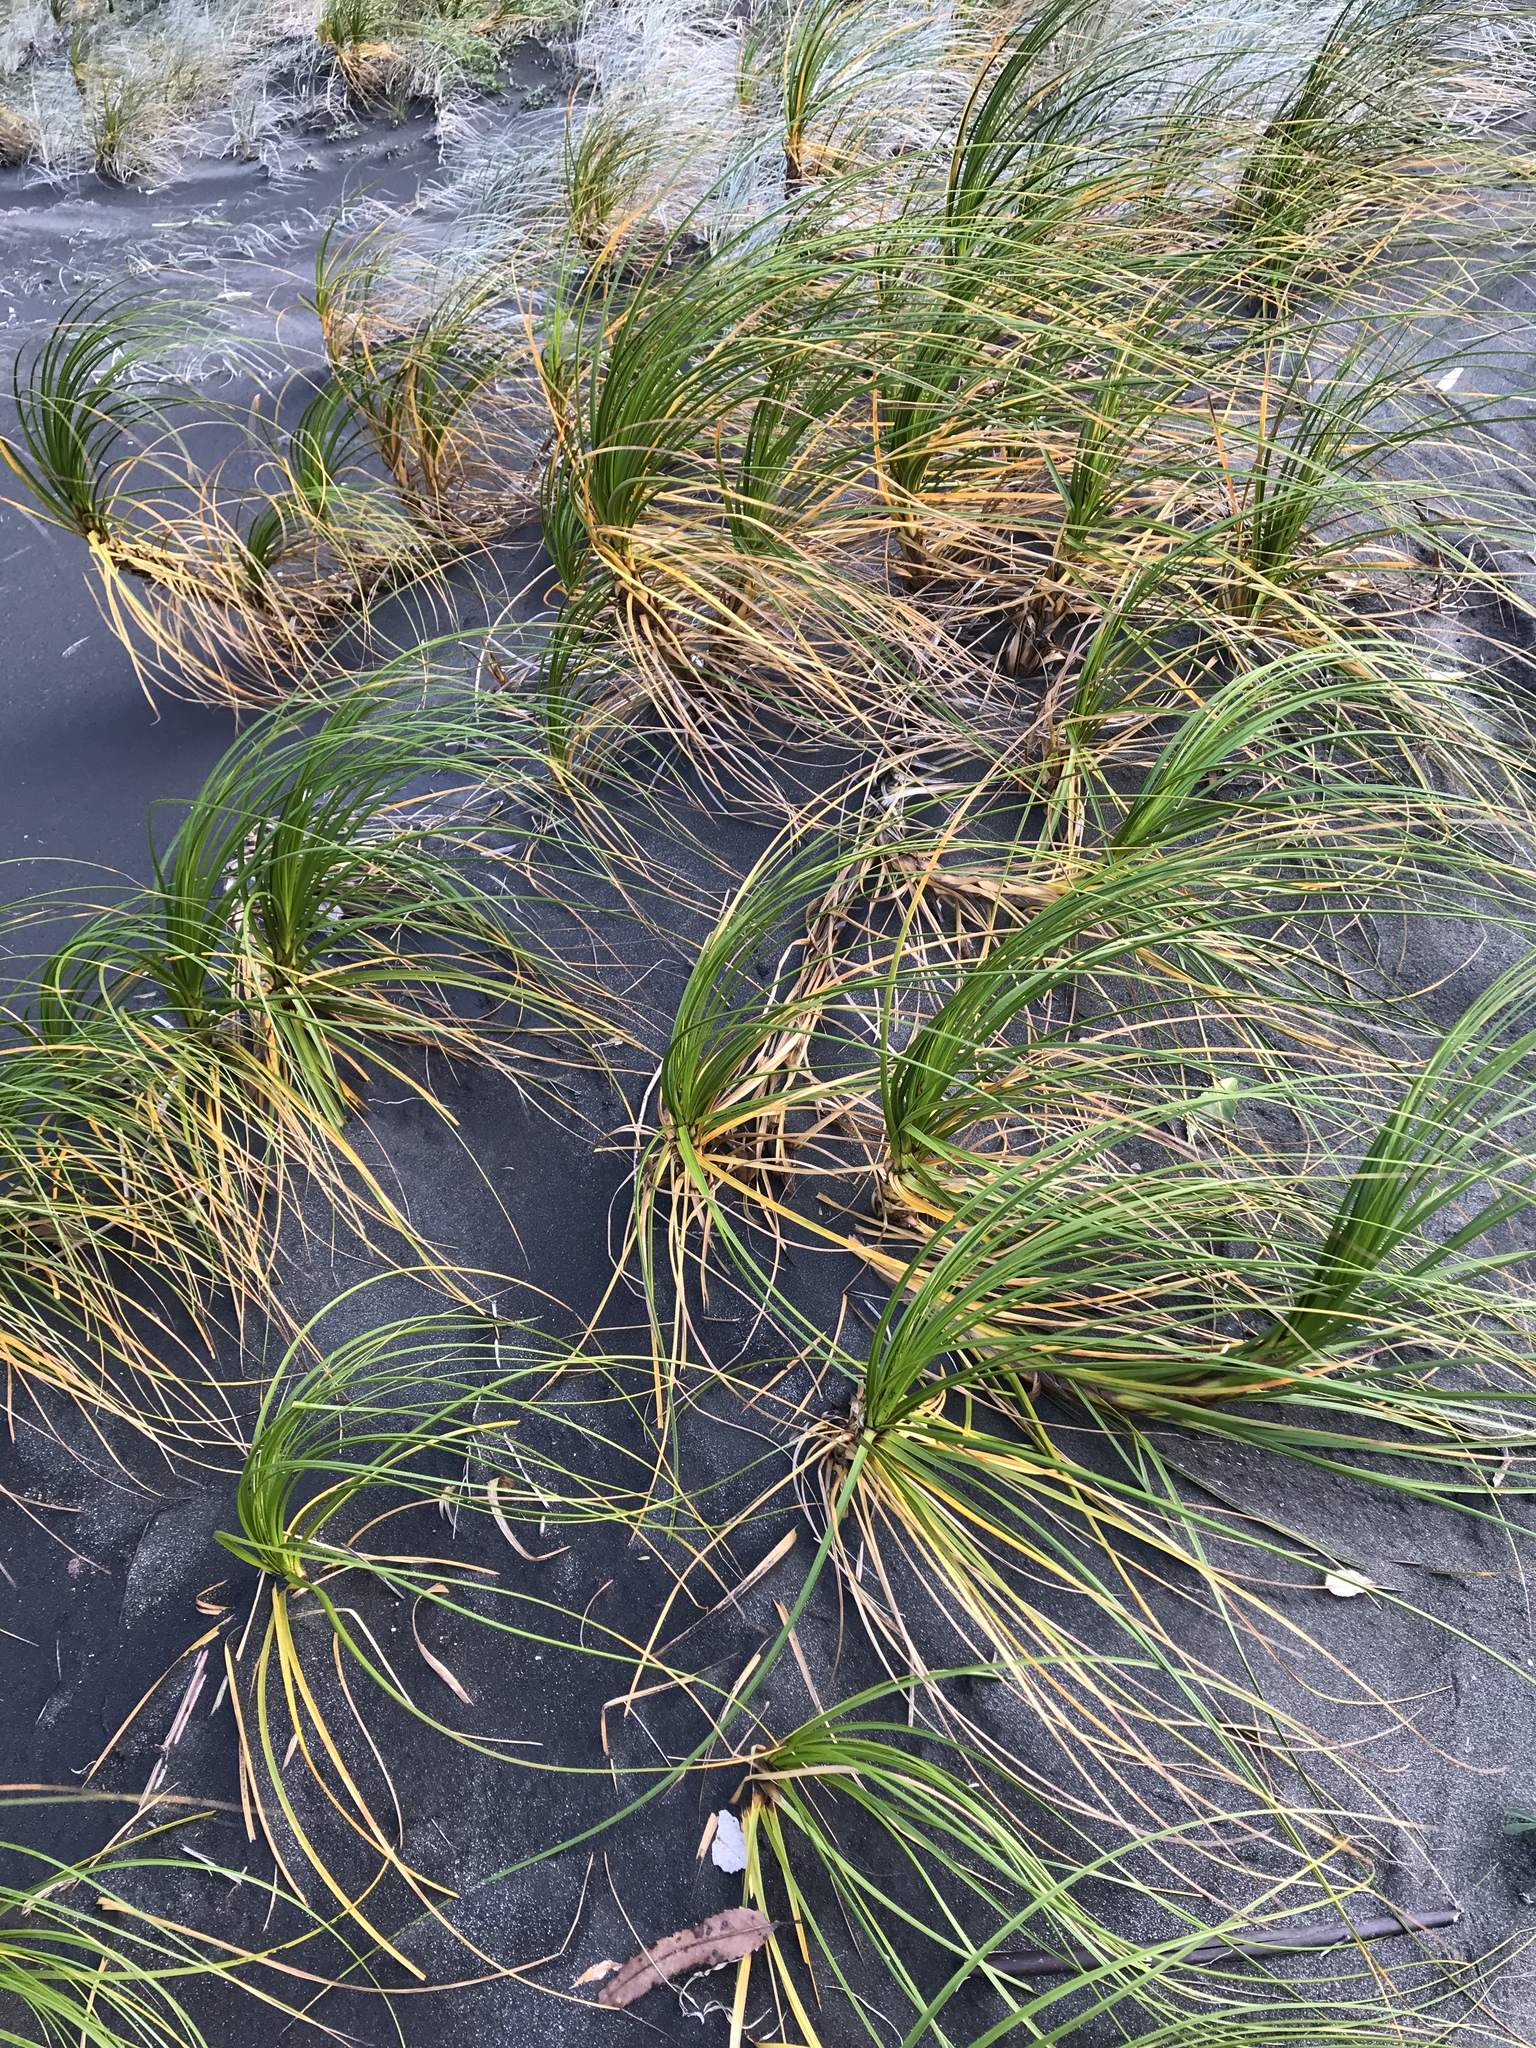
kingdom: Plantae
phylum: Tracheophyta
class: Liliopsida
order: Poales
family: Cyperaceae
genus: Ficinia
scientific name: Ficinia spiralis
